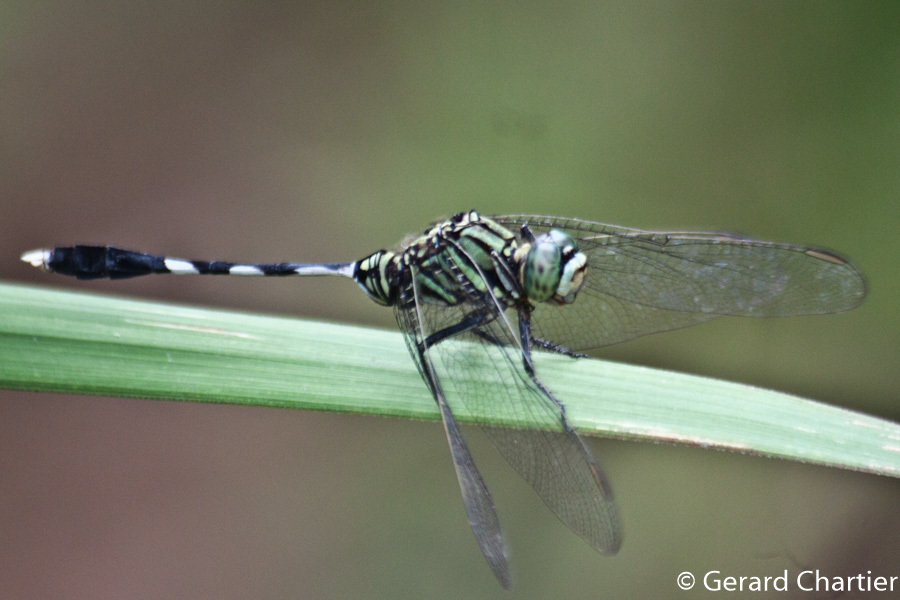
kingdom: Animalia
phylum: Arthropoda
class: Insecta
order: Odonata
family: Libellulidae
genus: Orthetrum
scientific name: Orthetrum sabina
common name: Slender skimmer
